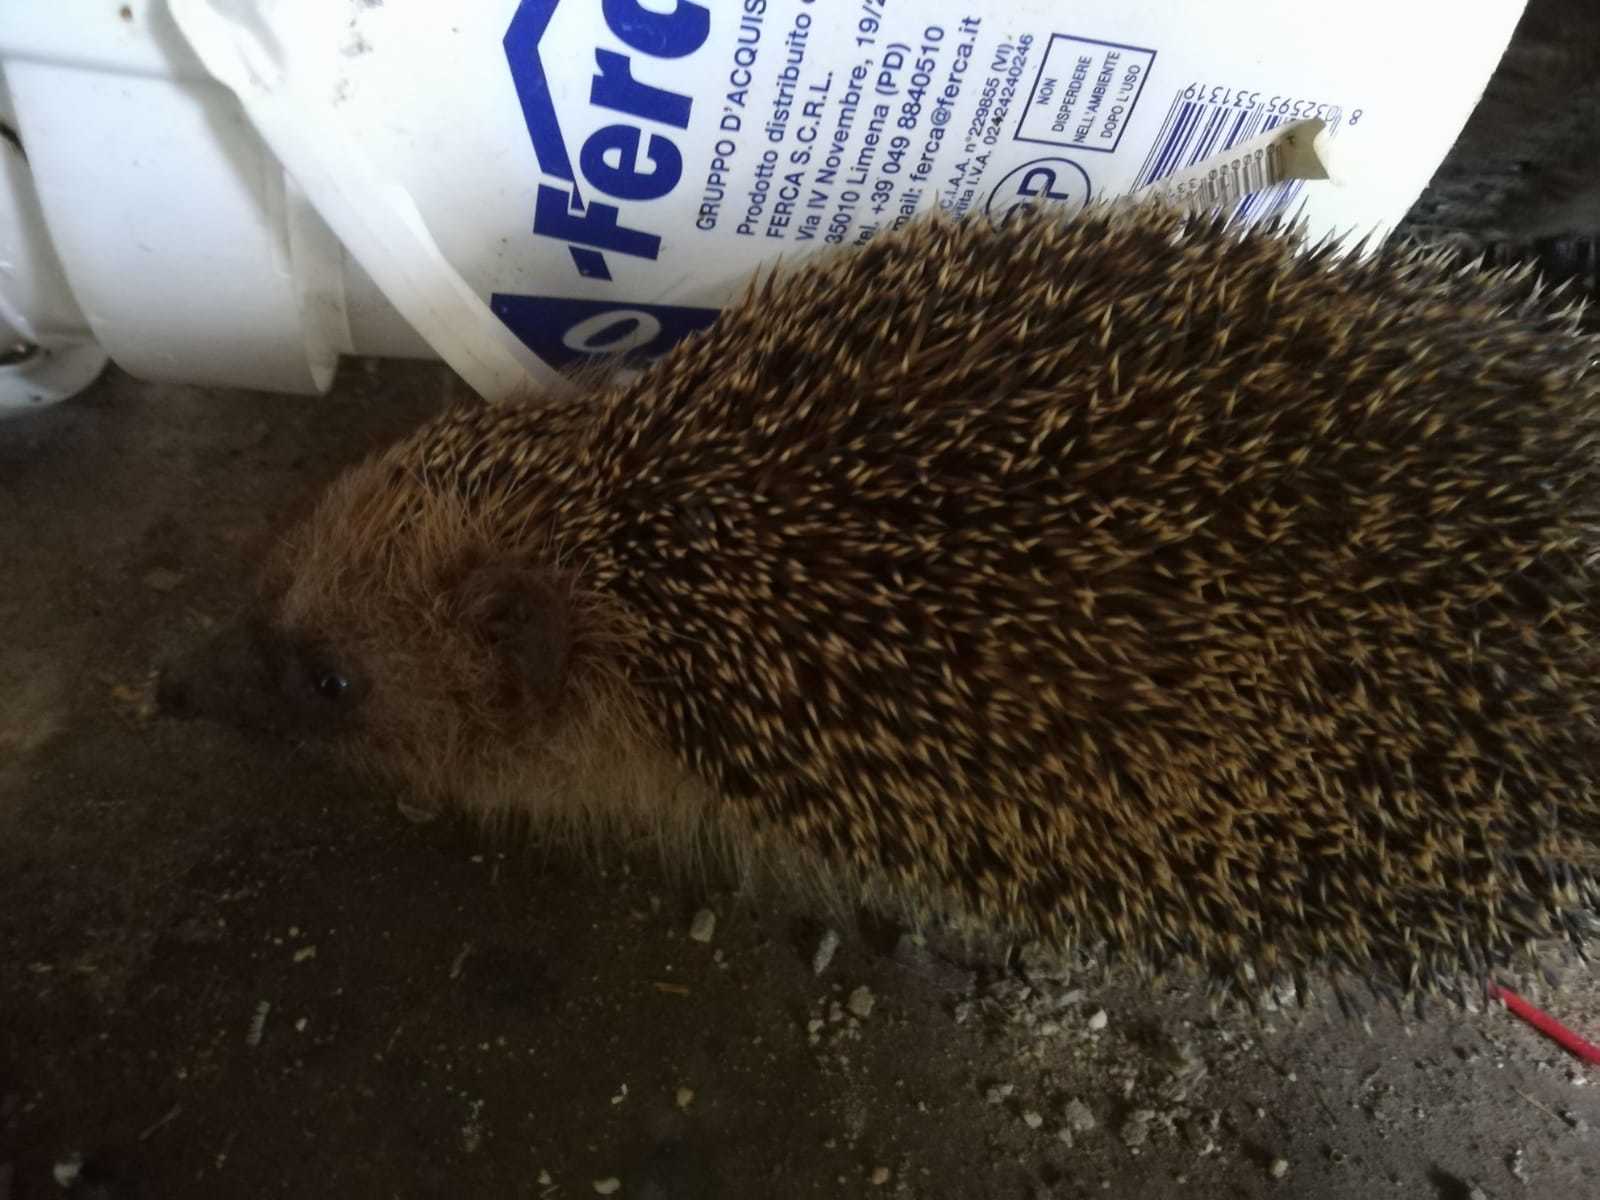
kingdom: Animalia
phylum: Chordata
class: Mammalia
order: Erinaceomorpha
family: Erinaceidae
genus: Erinaceus
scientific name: Erinaceus europaeus
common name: West european hedgehog
